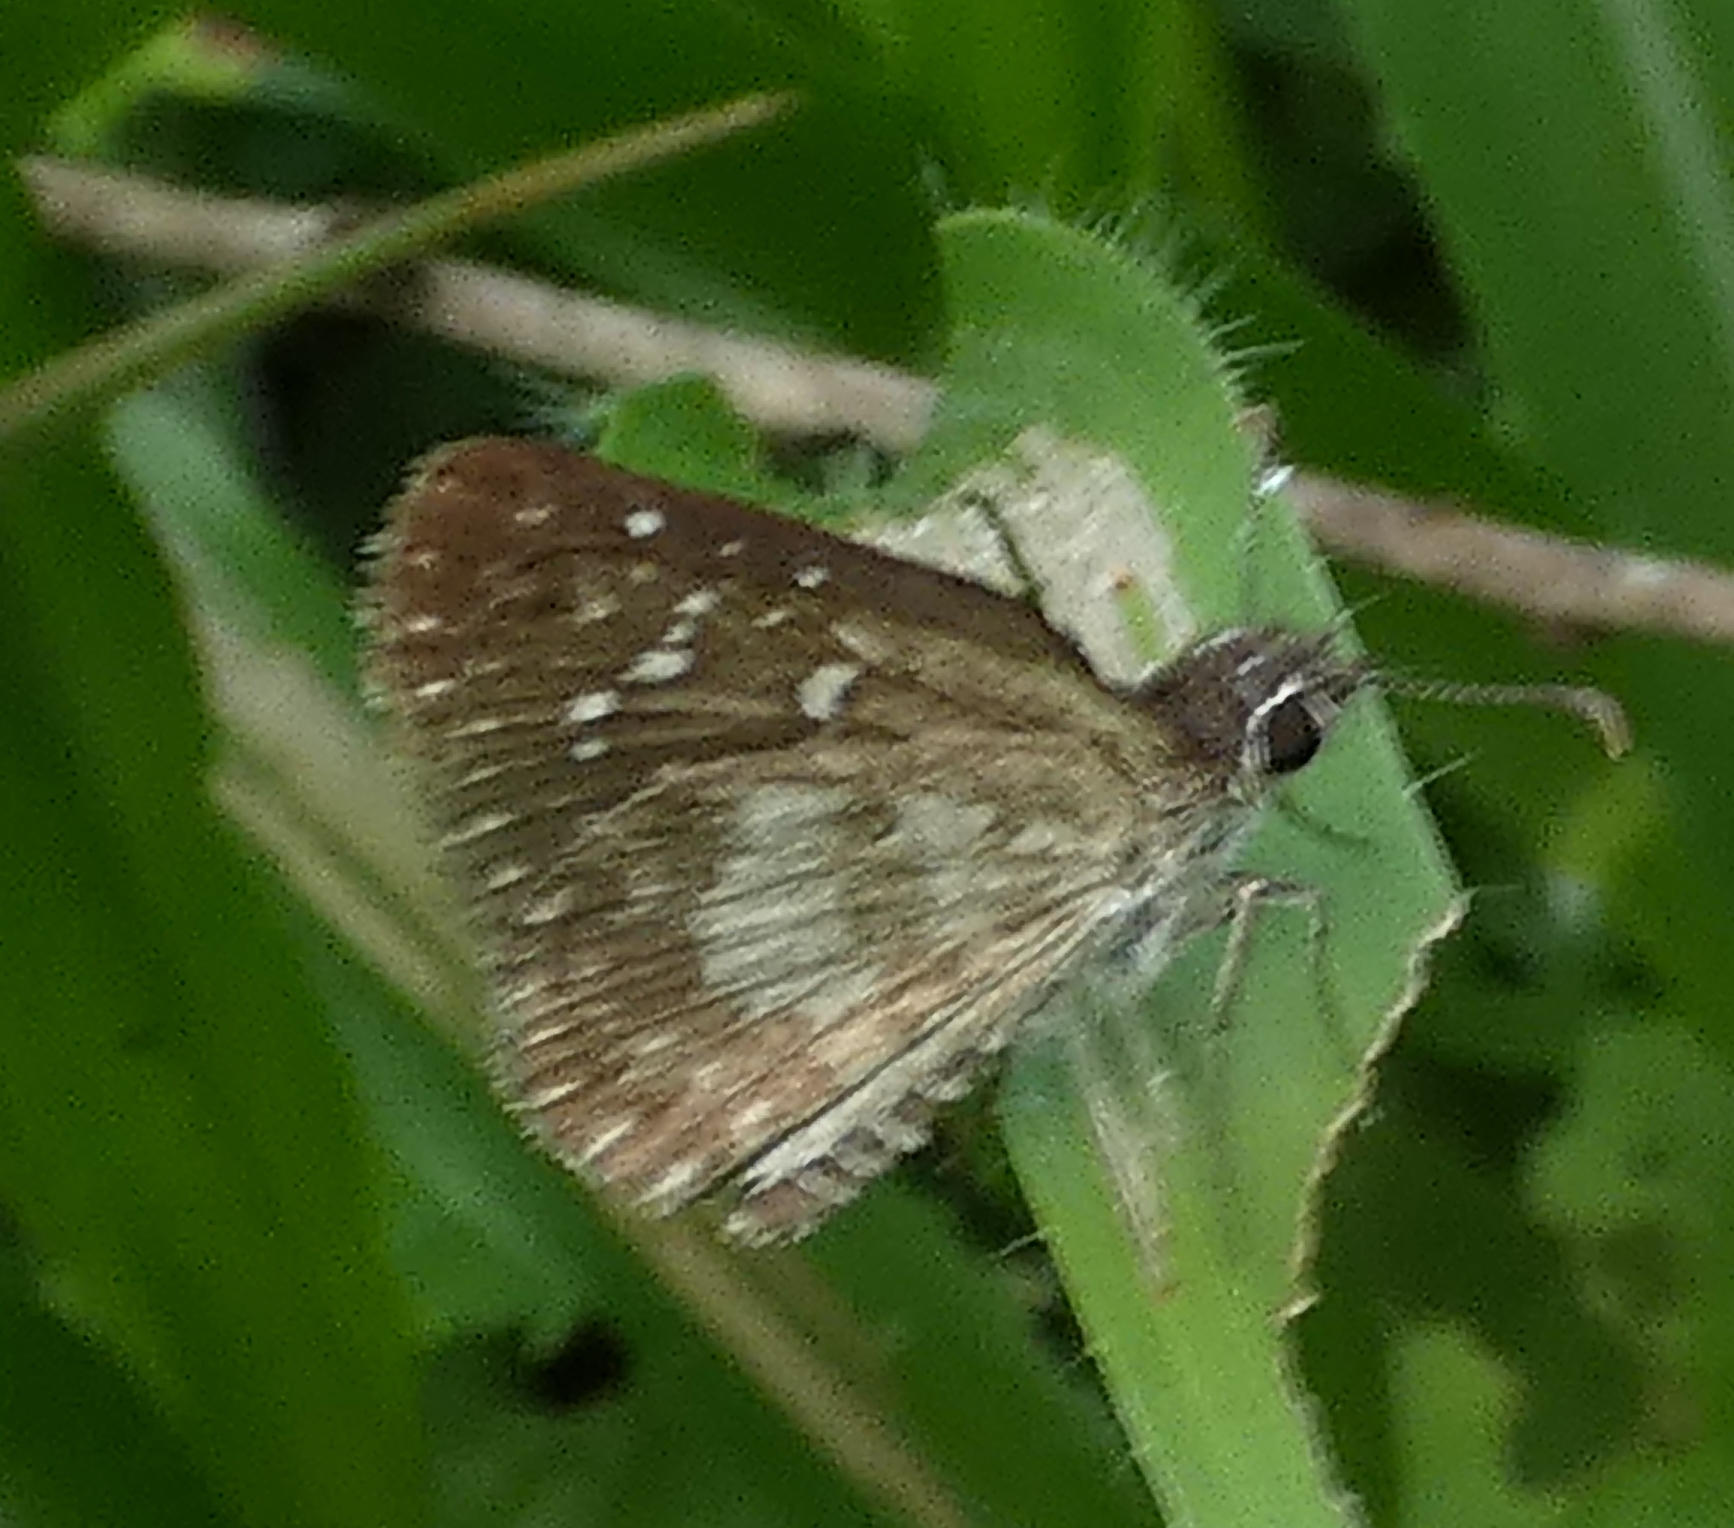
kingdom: Animalia
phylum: Arthropoda
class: Insecta
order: Lepidoptera
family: Hesperiidae
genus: Pyrgus
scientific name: Pyrgus oileus
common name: Tropical checkered-skipper
